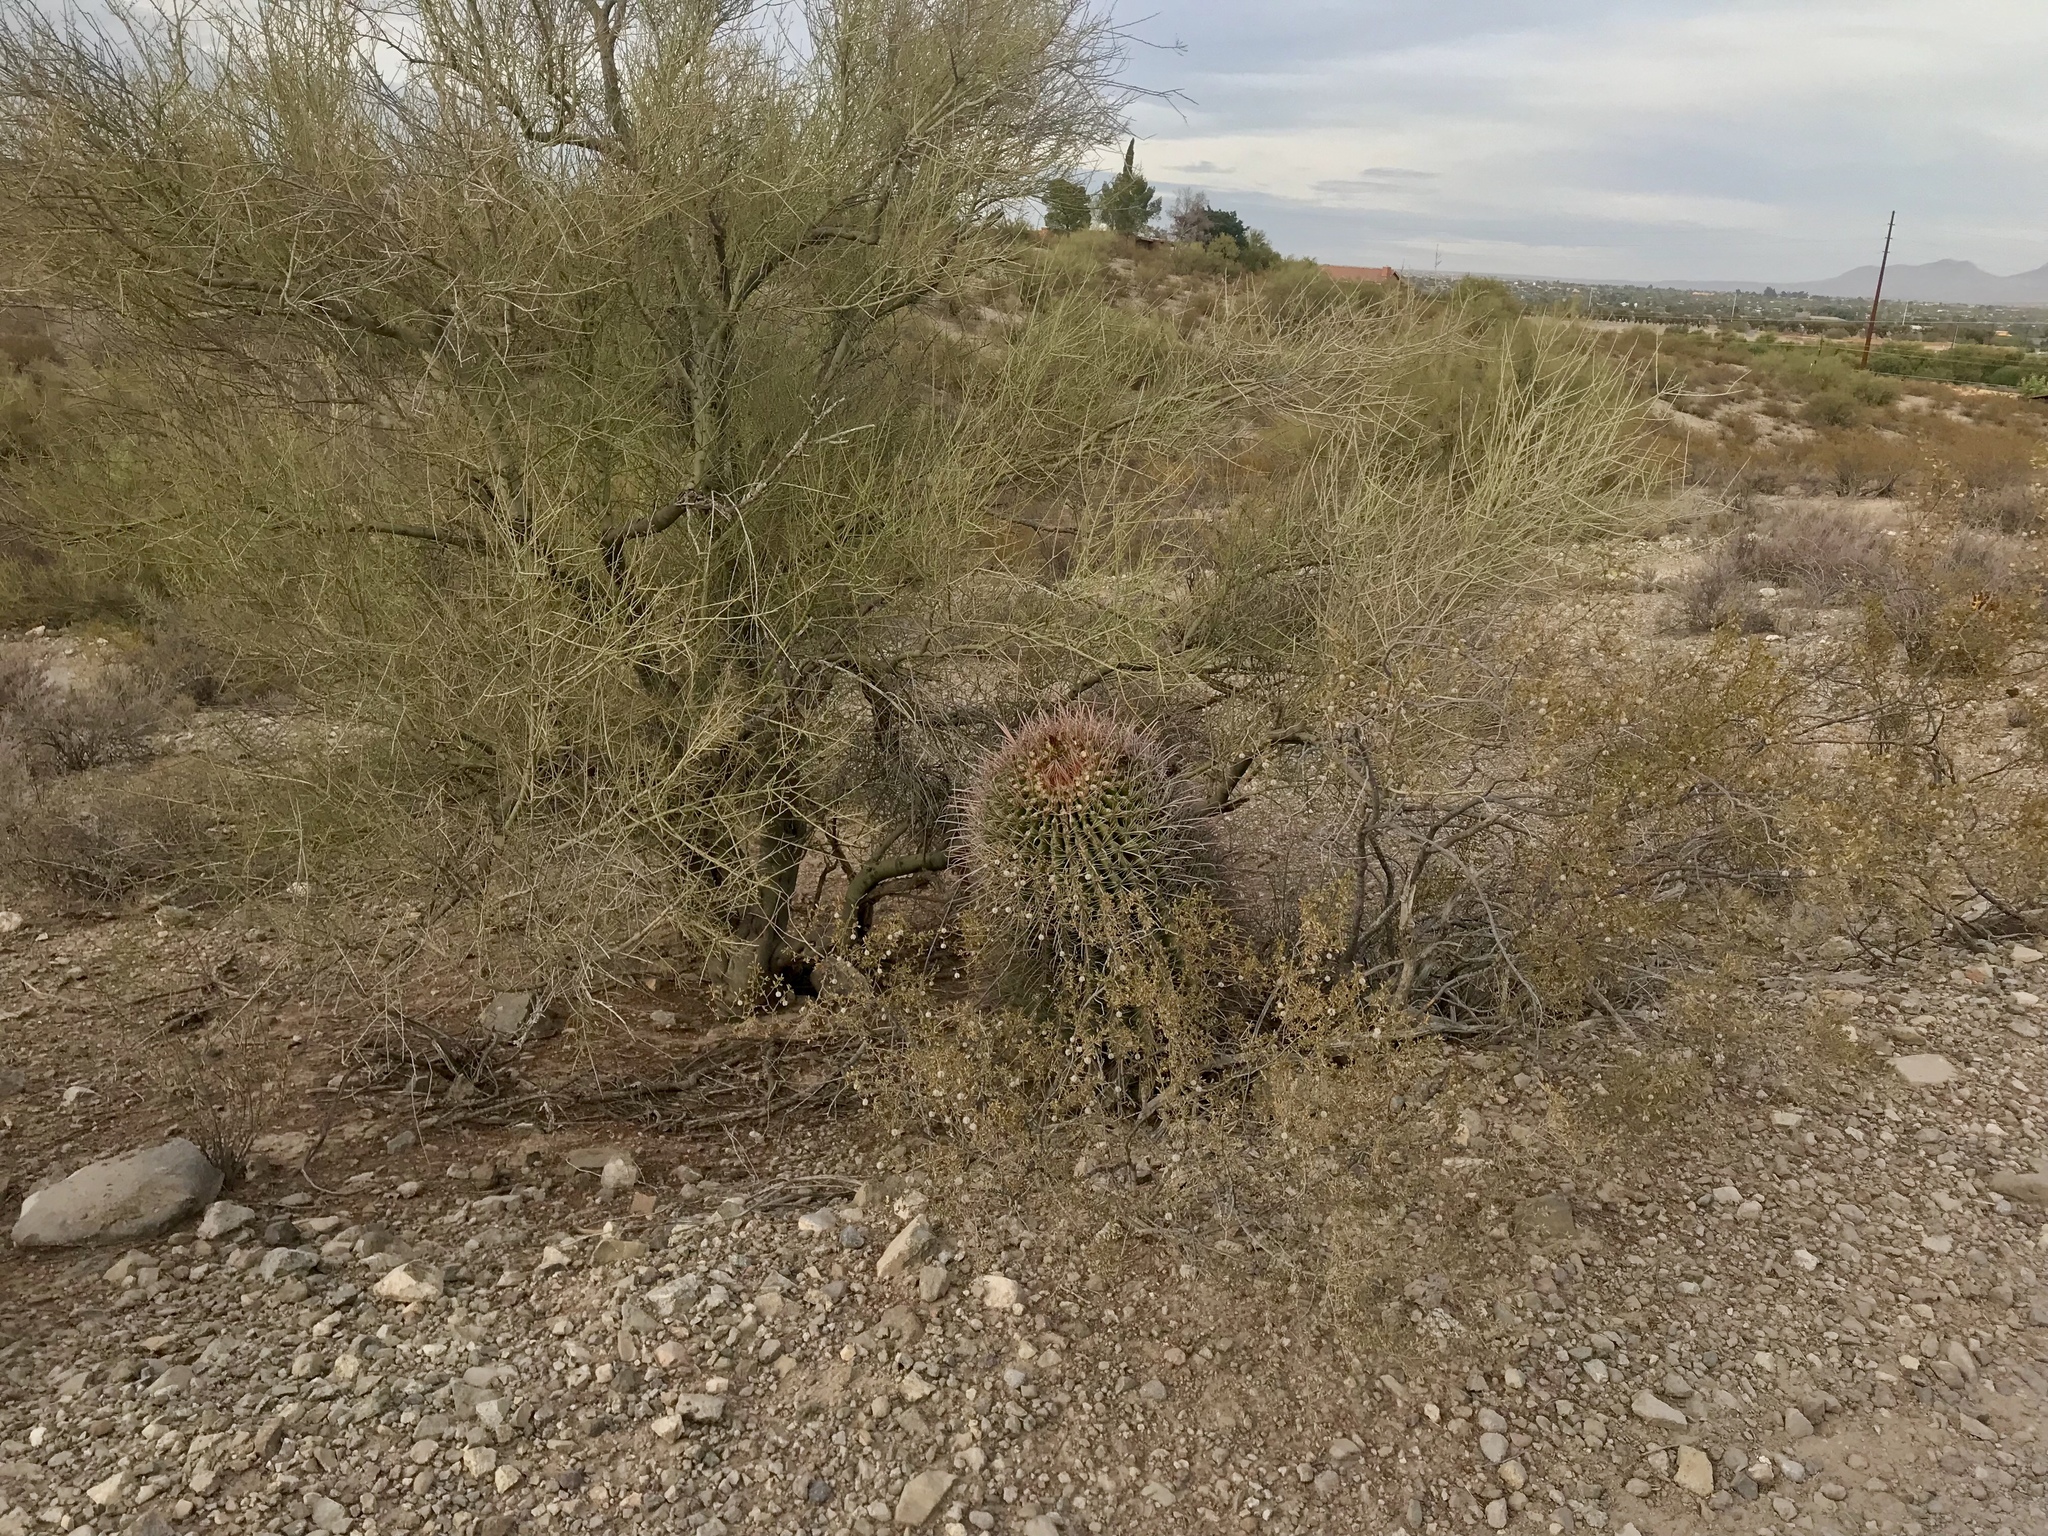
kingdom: Plantae
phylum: Tracheophyta
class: Magnoliopsida
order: Caryophyllales
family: Cactaceae
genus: Ferocactus
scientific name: Ferocactus wislizeni
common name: Candy barrel cactus
